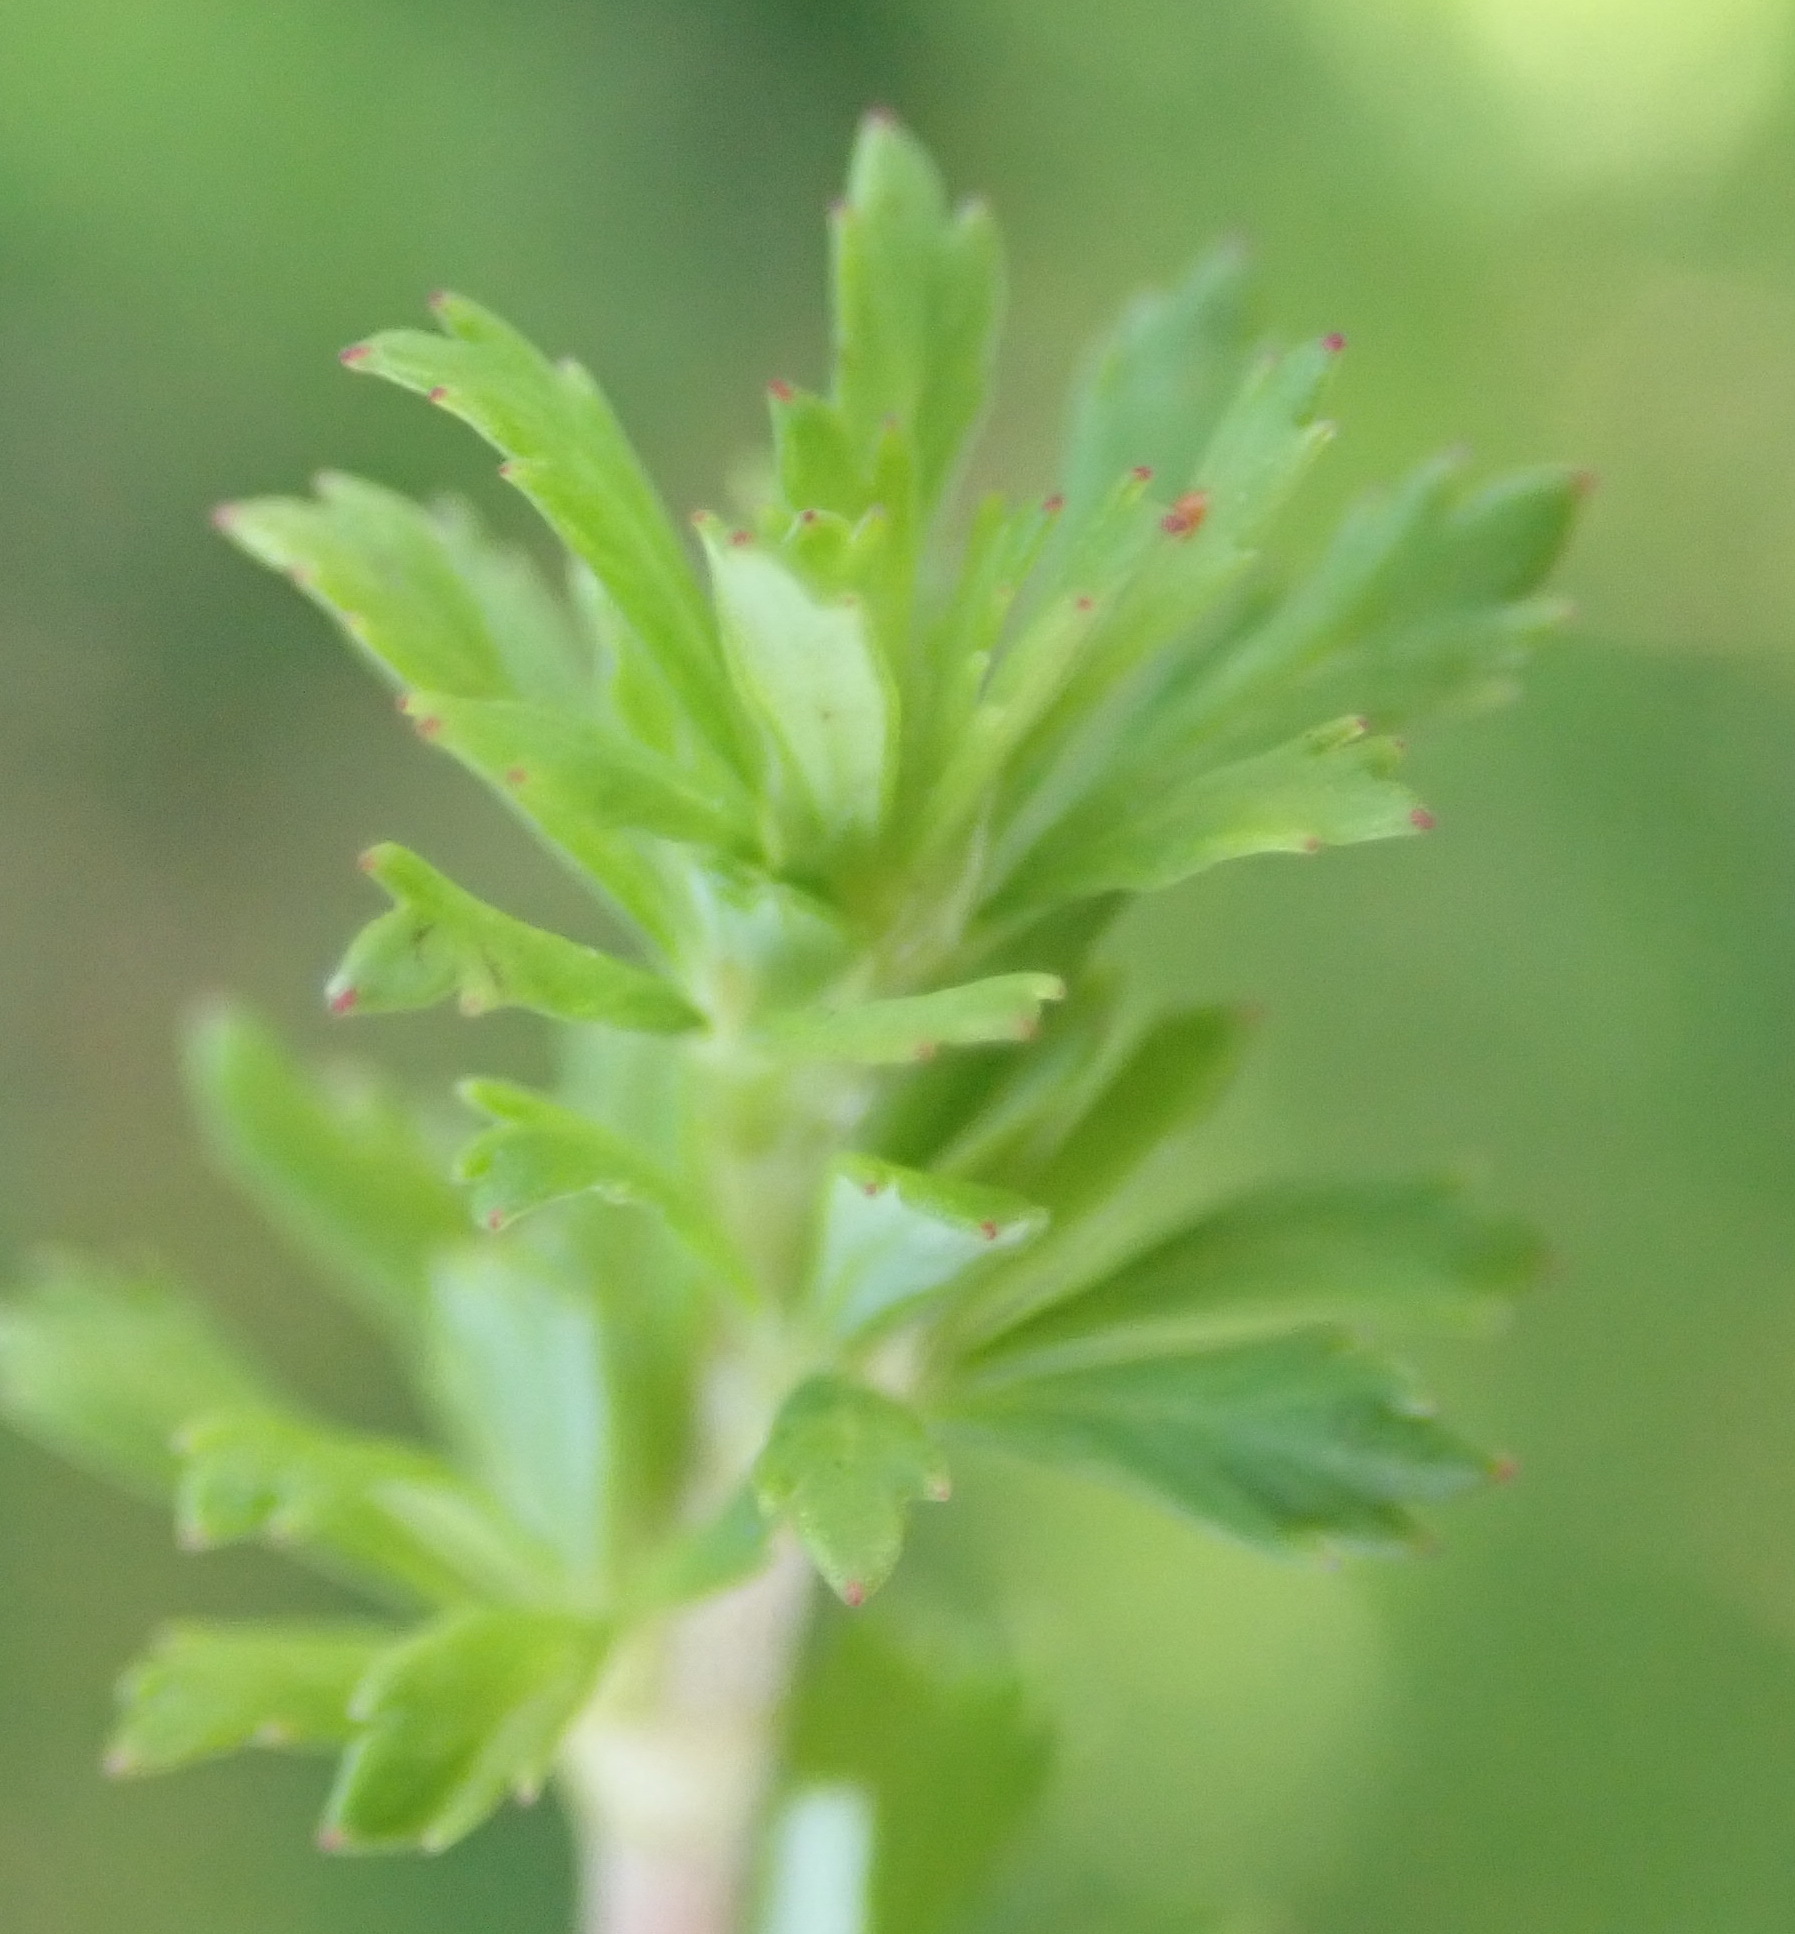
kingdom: Plantae
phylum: Tracheophyta
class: Magnoliopsida
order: Rosales
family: Rosaceae
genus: Cliffortia
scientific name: Cliffortia serpyllifolia
